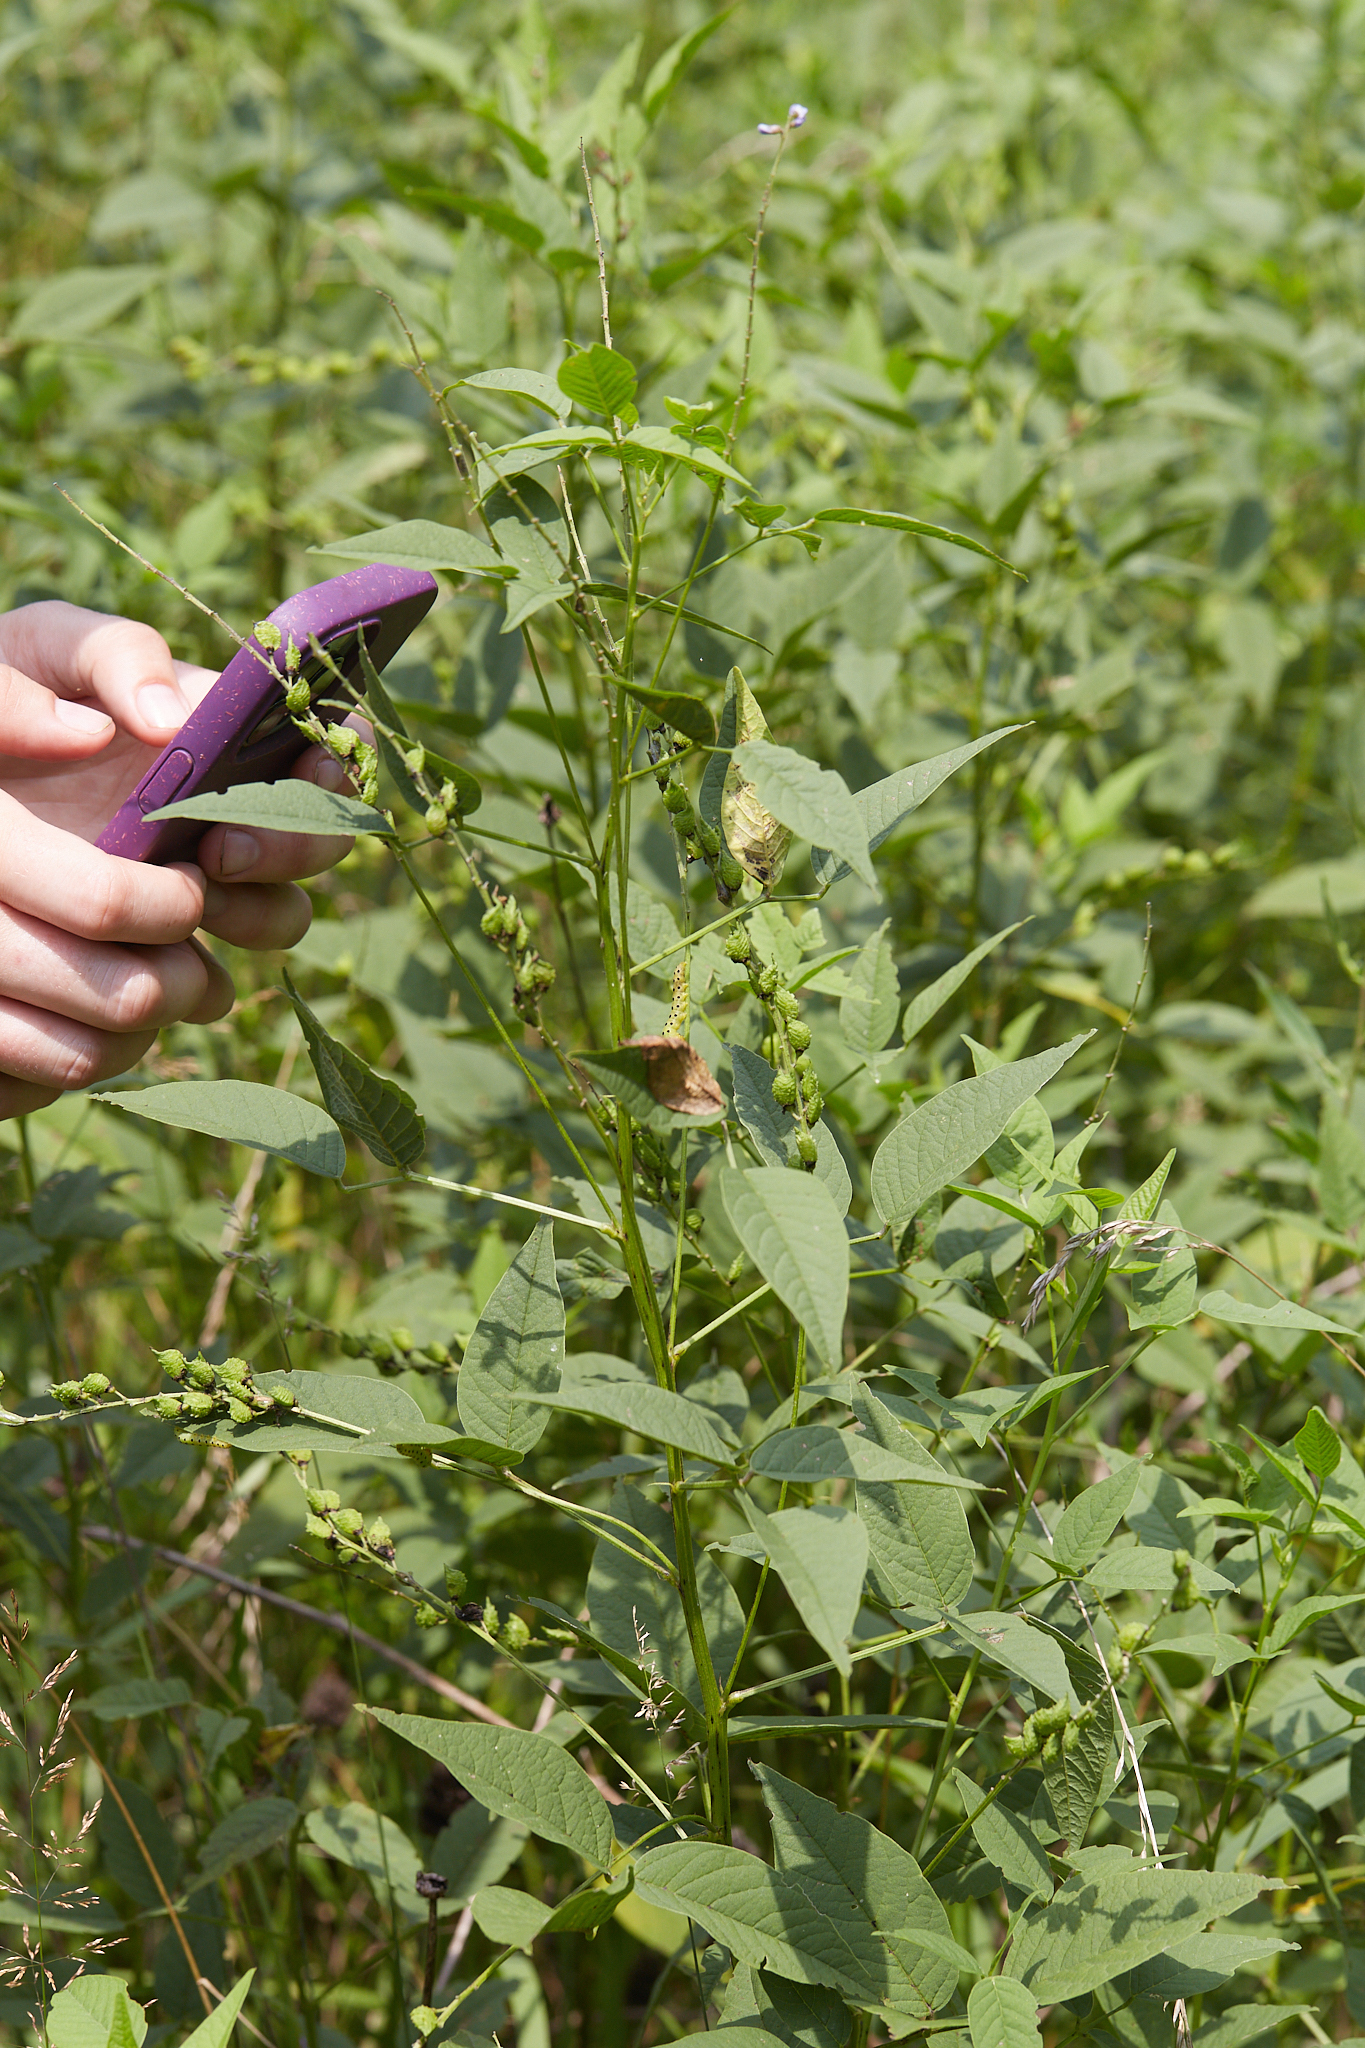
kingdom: Plantae
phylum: Tracheophyta
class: Magnoliopsida
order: Fabales
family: Fabaceae
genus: Orbexilum
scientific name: Orbexilum onobrychis
